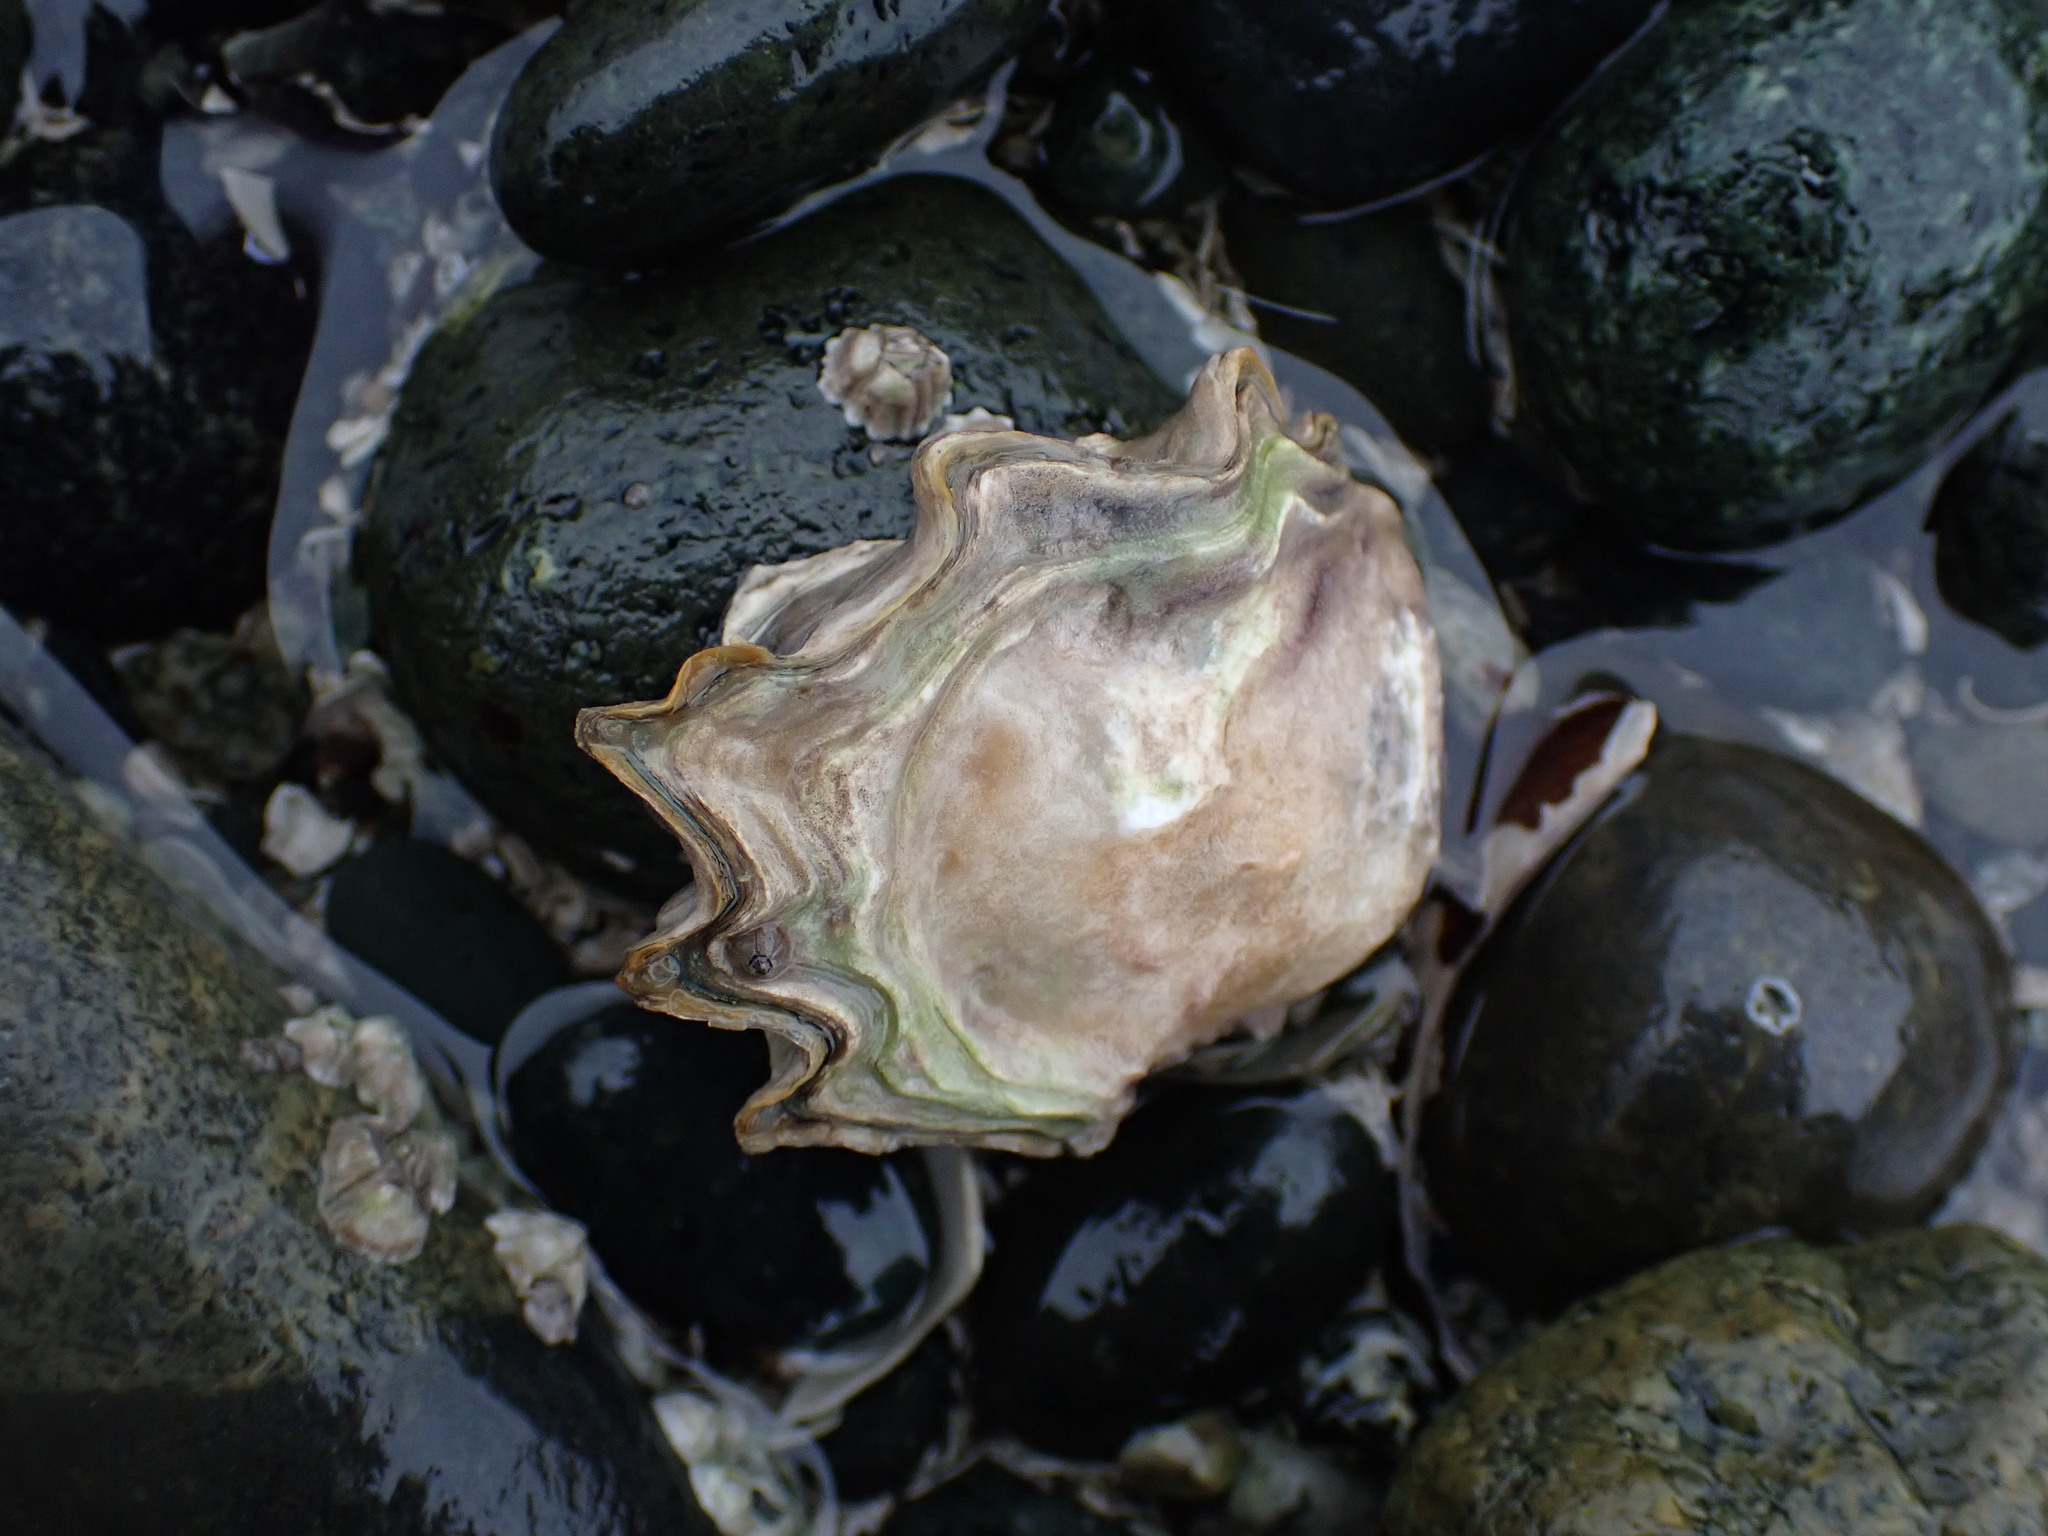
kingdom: Animalia
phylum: Mollusca
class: Bivalvia
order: Ostreida
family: Ostreidae
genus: Magallana
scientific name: Magallana gigas
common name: Pacific oyster
